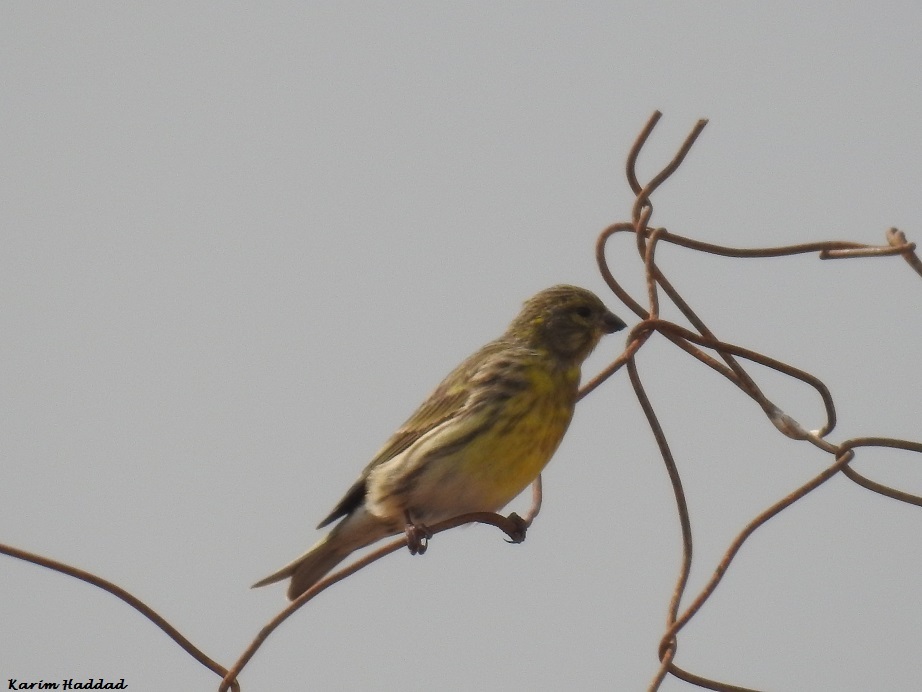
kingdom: Animalia
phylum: Chordata
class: Aves
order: Passeriformes
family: Fringillidae
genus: Serinus
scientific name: Serinus serinus
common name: European serin
